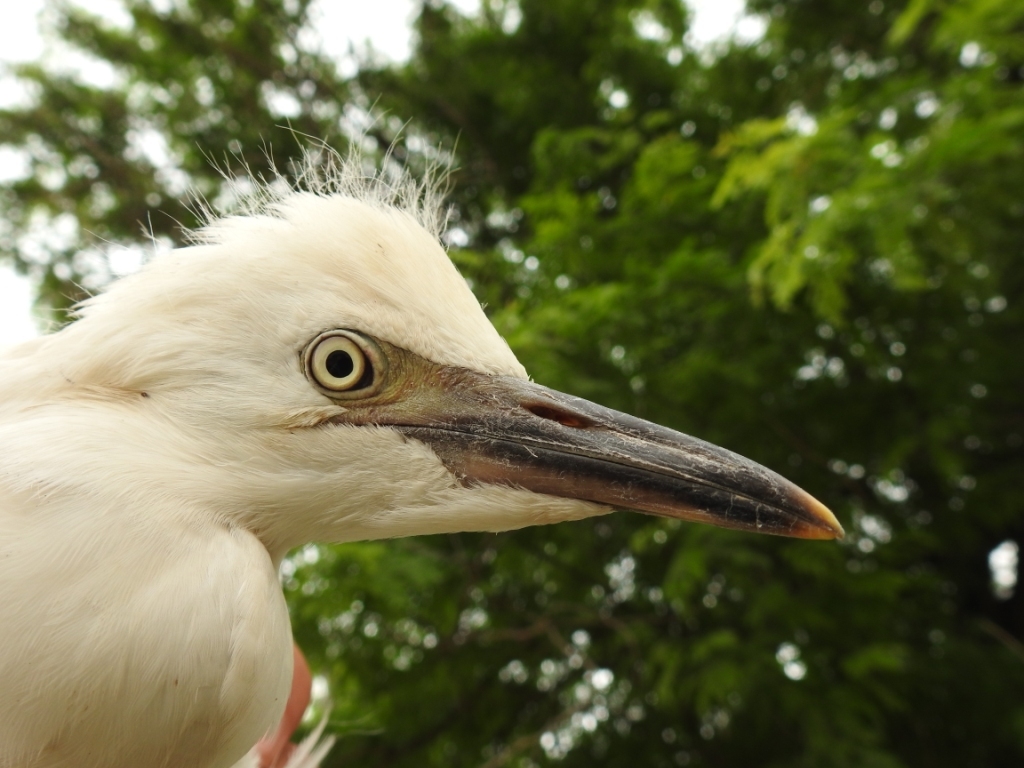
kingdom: Animalia
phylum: Chordata
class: Aves
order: Pelecaniformes
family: Ardeidae
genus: Bubulcus
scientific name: Bubulcus ibis
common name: Cattle egret
